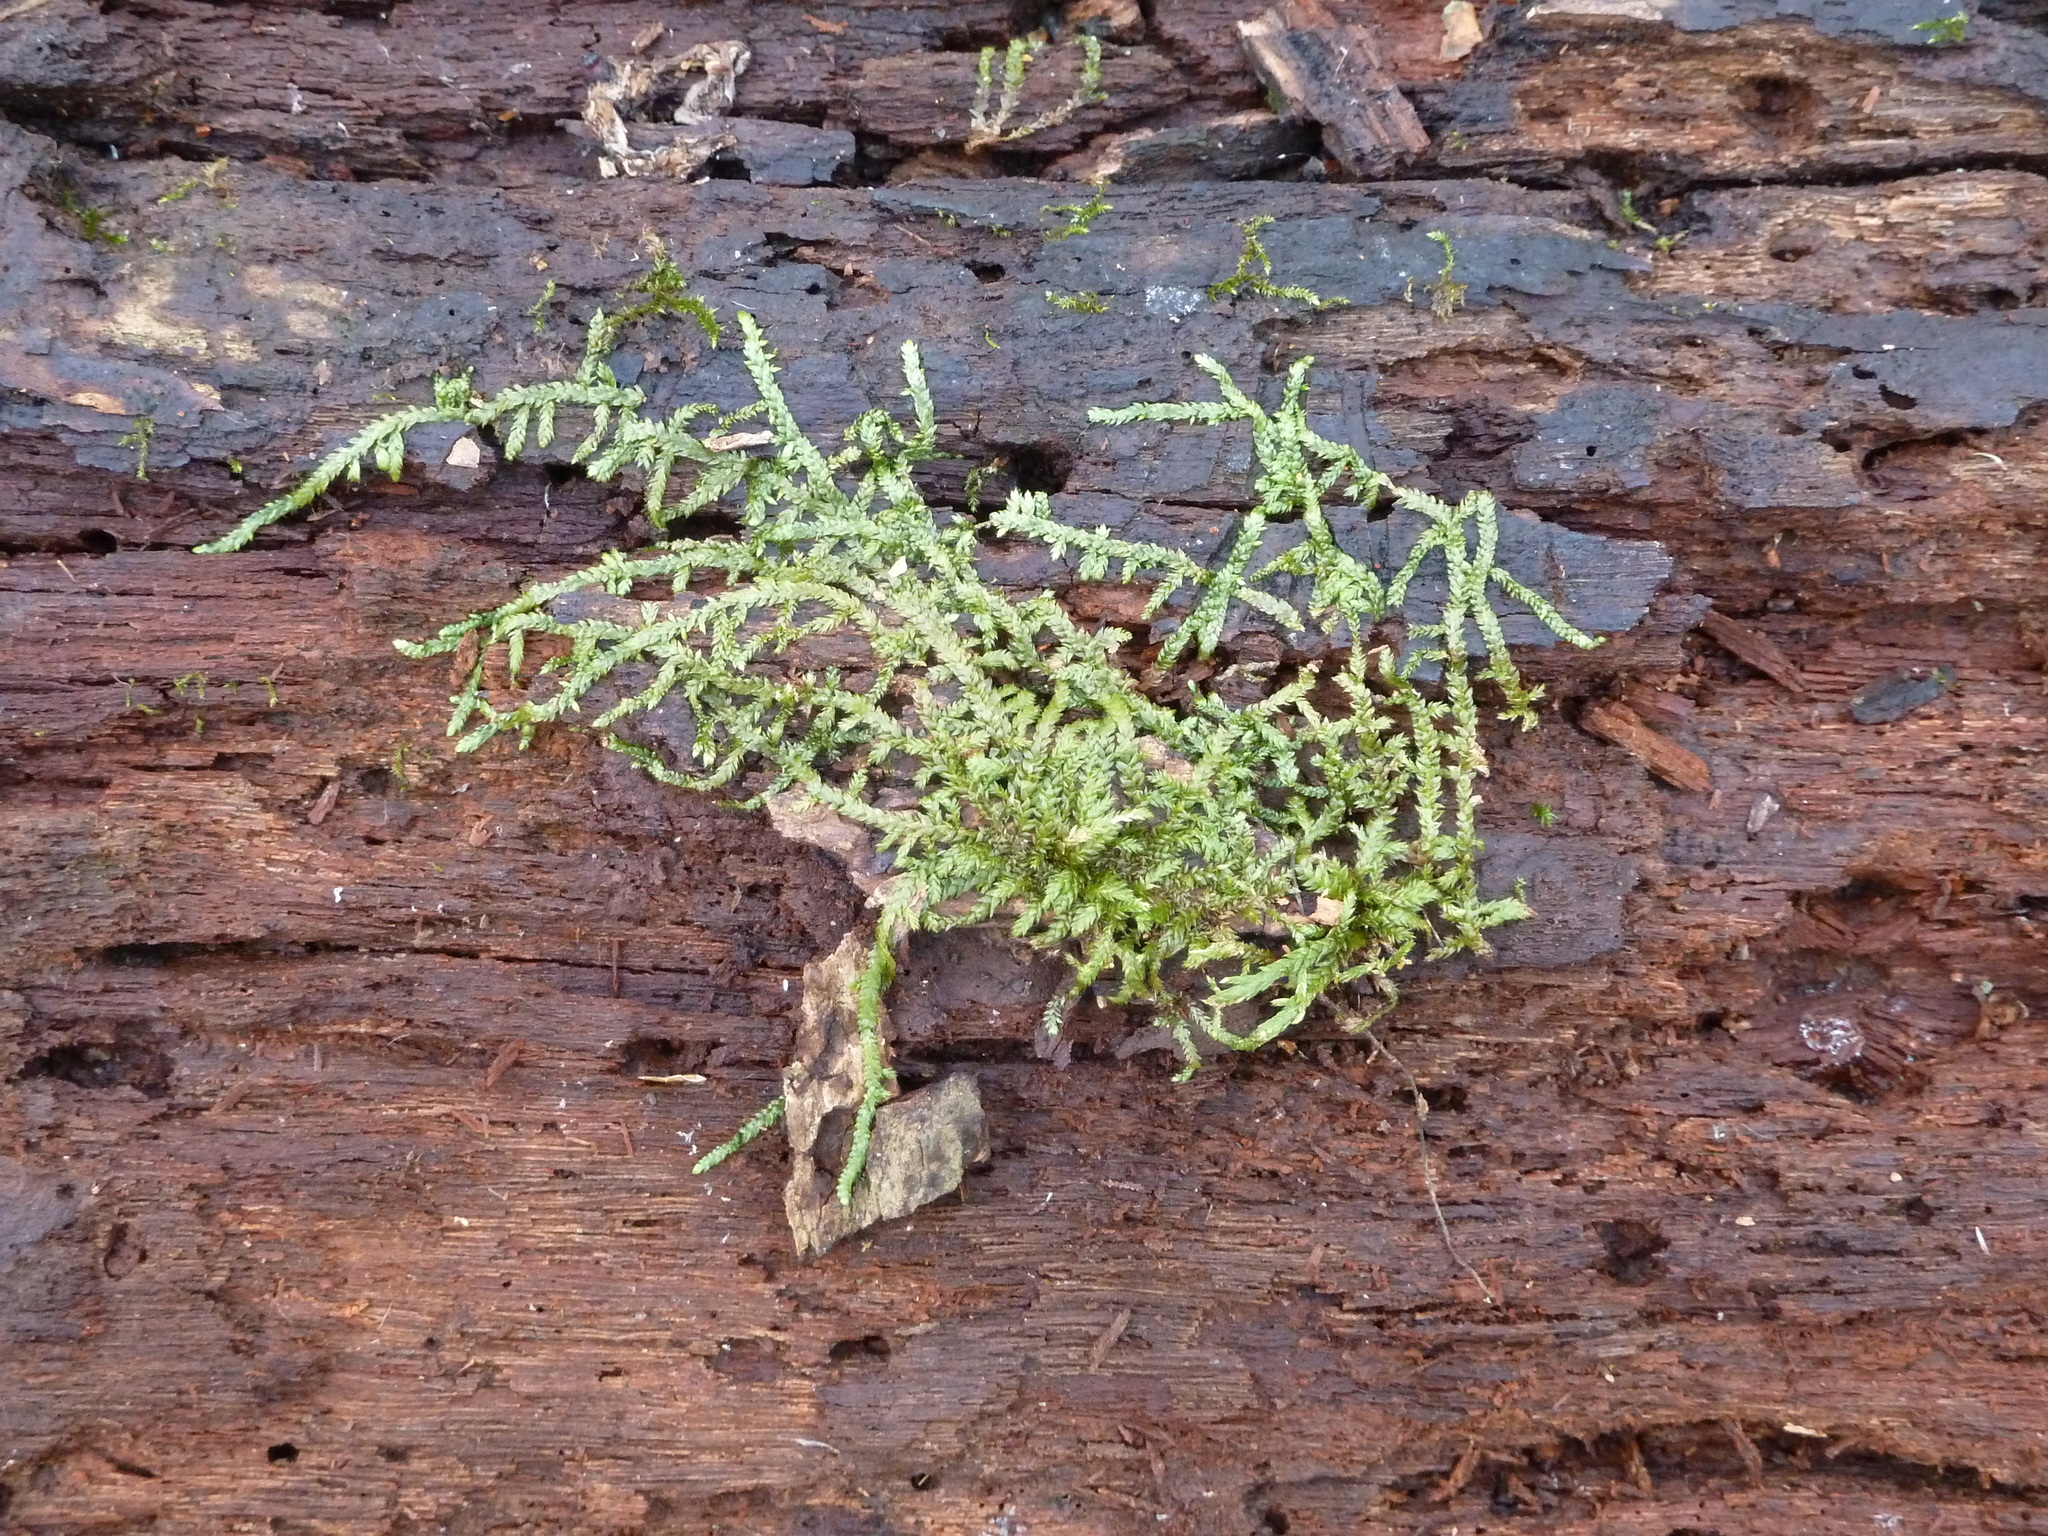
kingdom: Plantae
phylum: Bryophyta
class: Bryopsida
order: Hypnales
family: Entodontaceae
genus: Entodon
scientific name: Entodon seductrix
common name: Round-stemmed entodon moss
